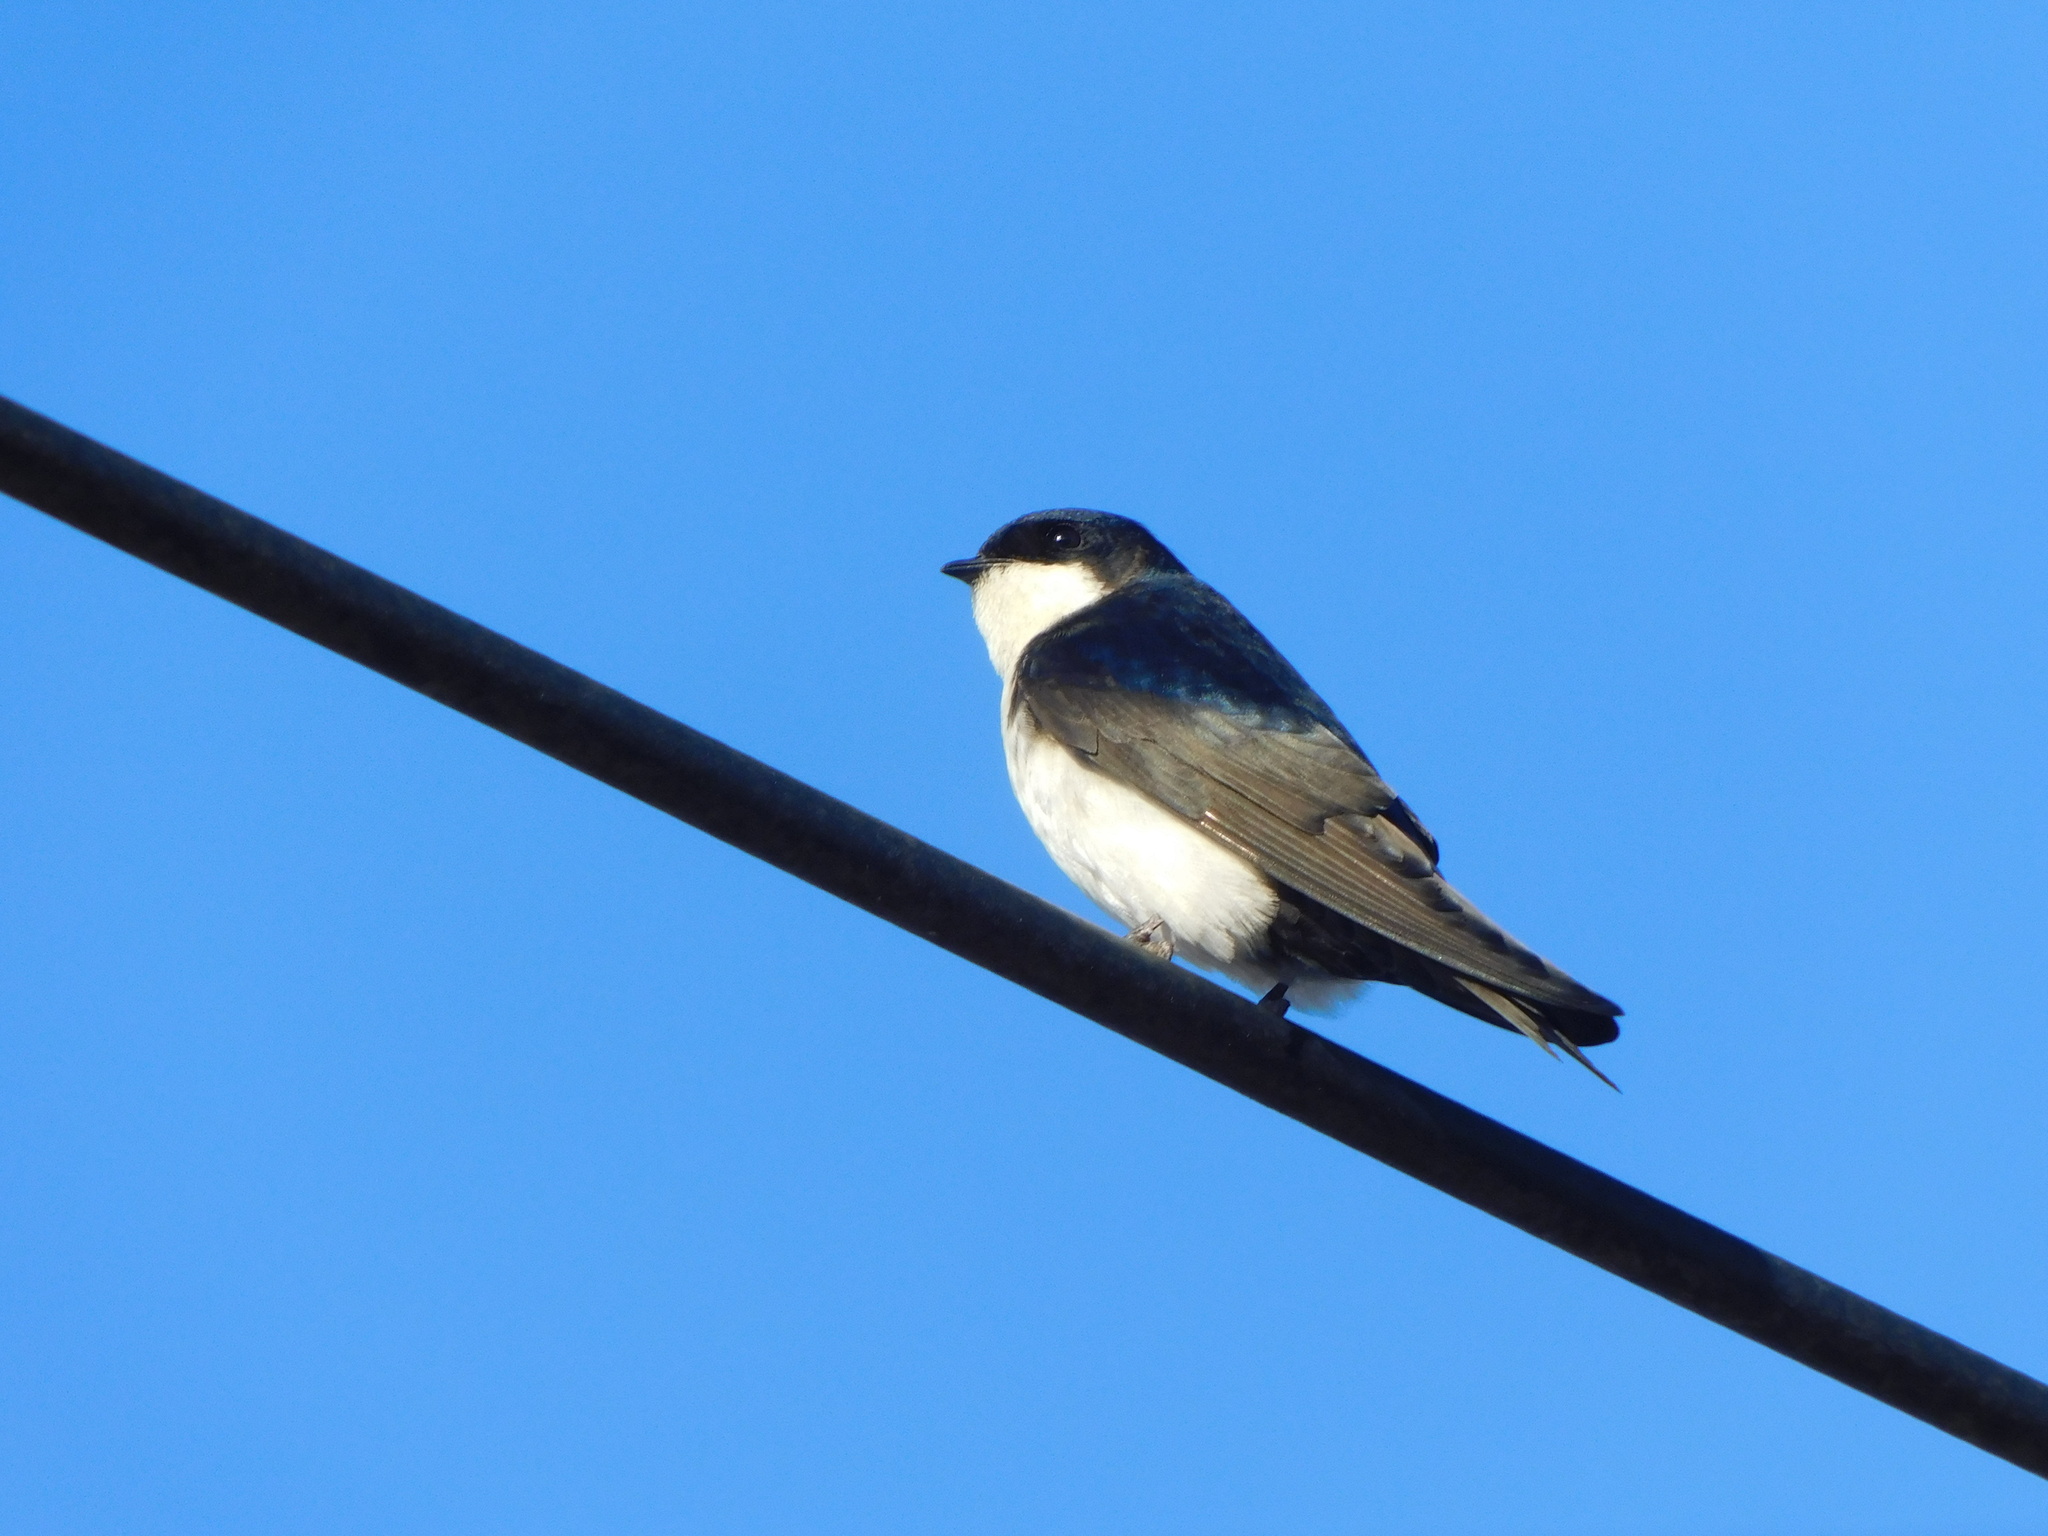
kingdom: Animalia
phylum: Chordata
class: Aves
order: Passeriformes
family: Hirundinidae
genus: Notiochelidon
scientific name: Notiochelidon cyanoleuca
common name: Blue-and-white swallow
